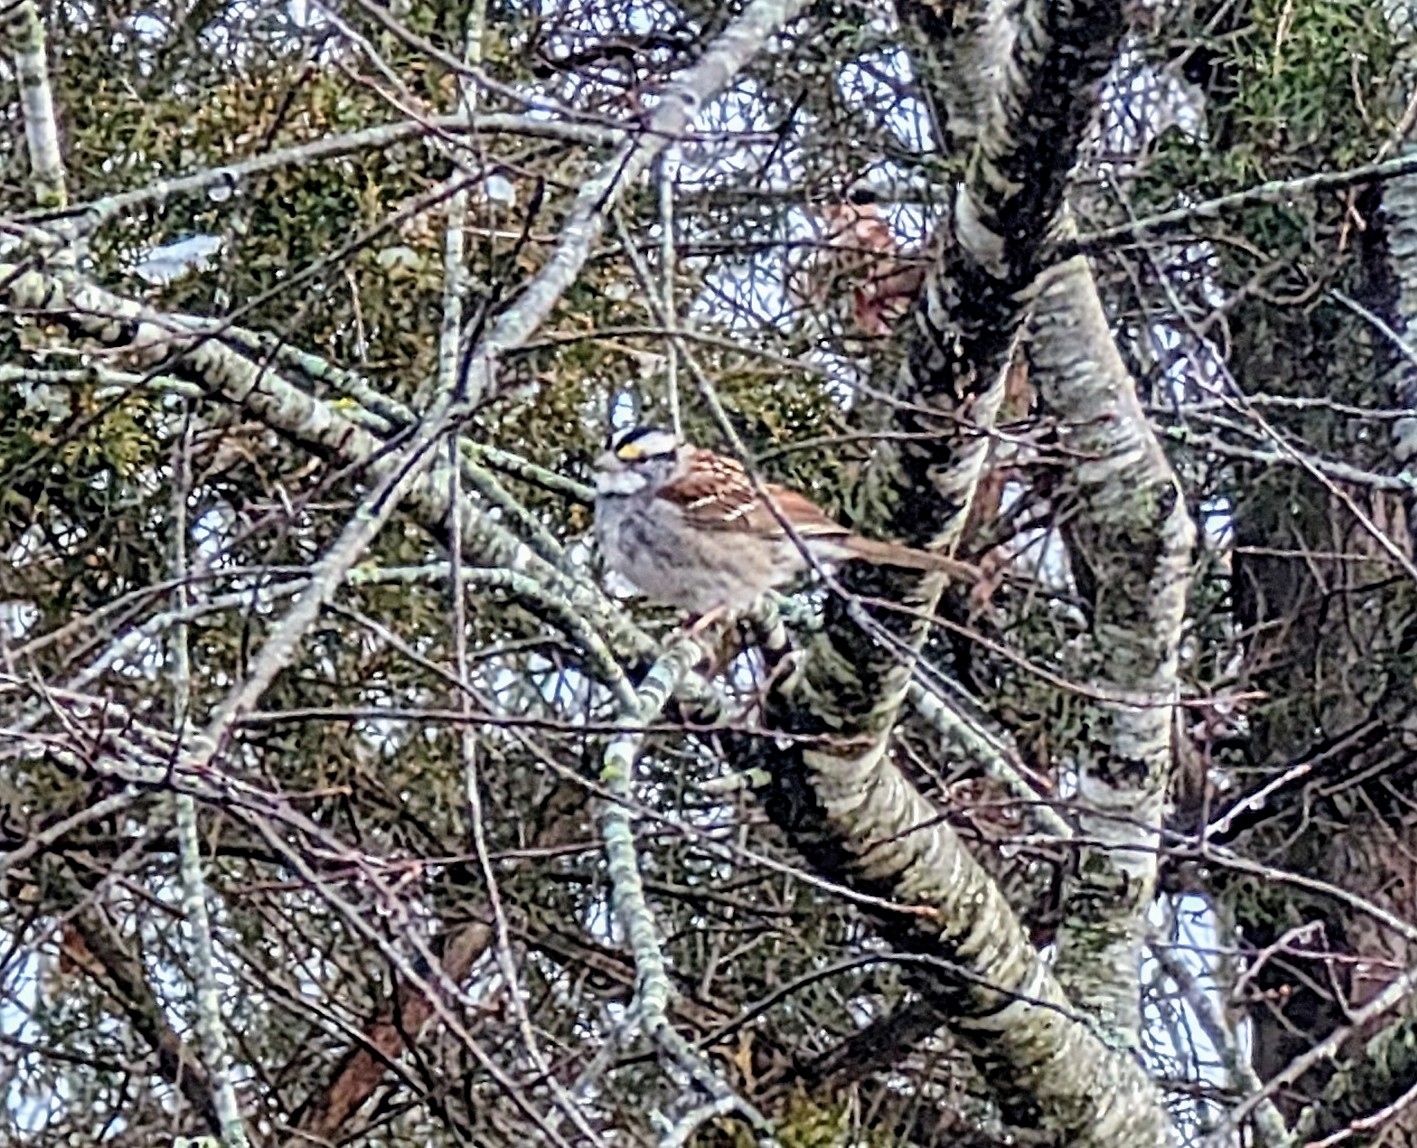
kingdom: Animalia
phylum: Chordata
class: Aves
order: Passeriformes
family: Passerellidae
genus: Zonotrichia
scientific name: Zonotrichia albicollis
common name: White-throated sparrow
